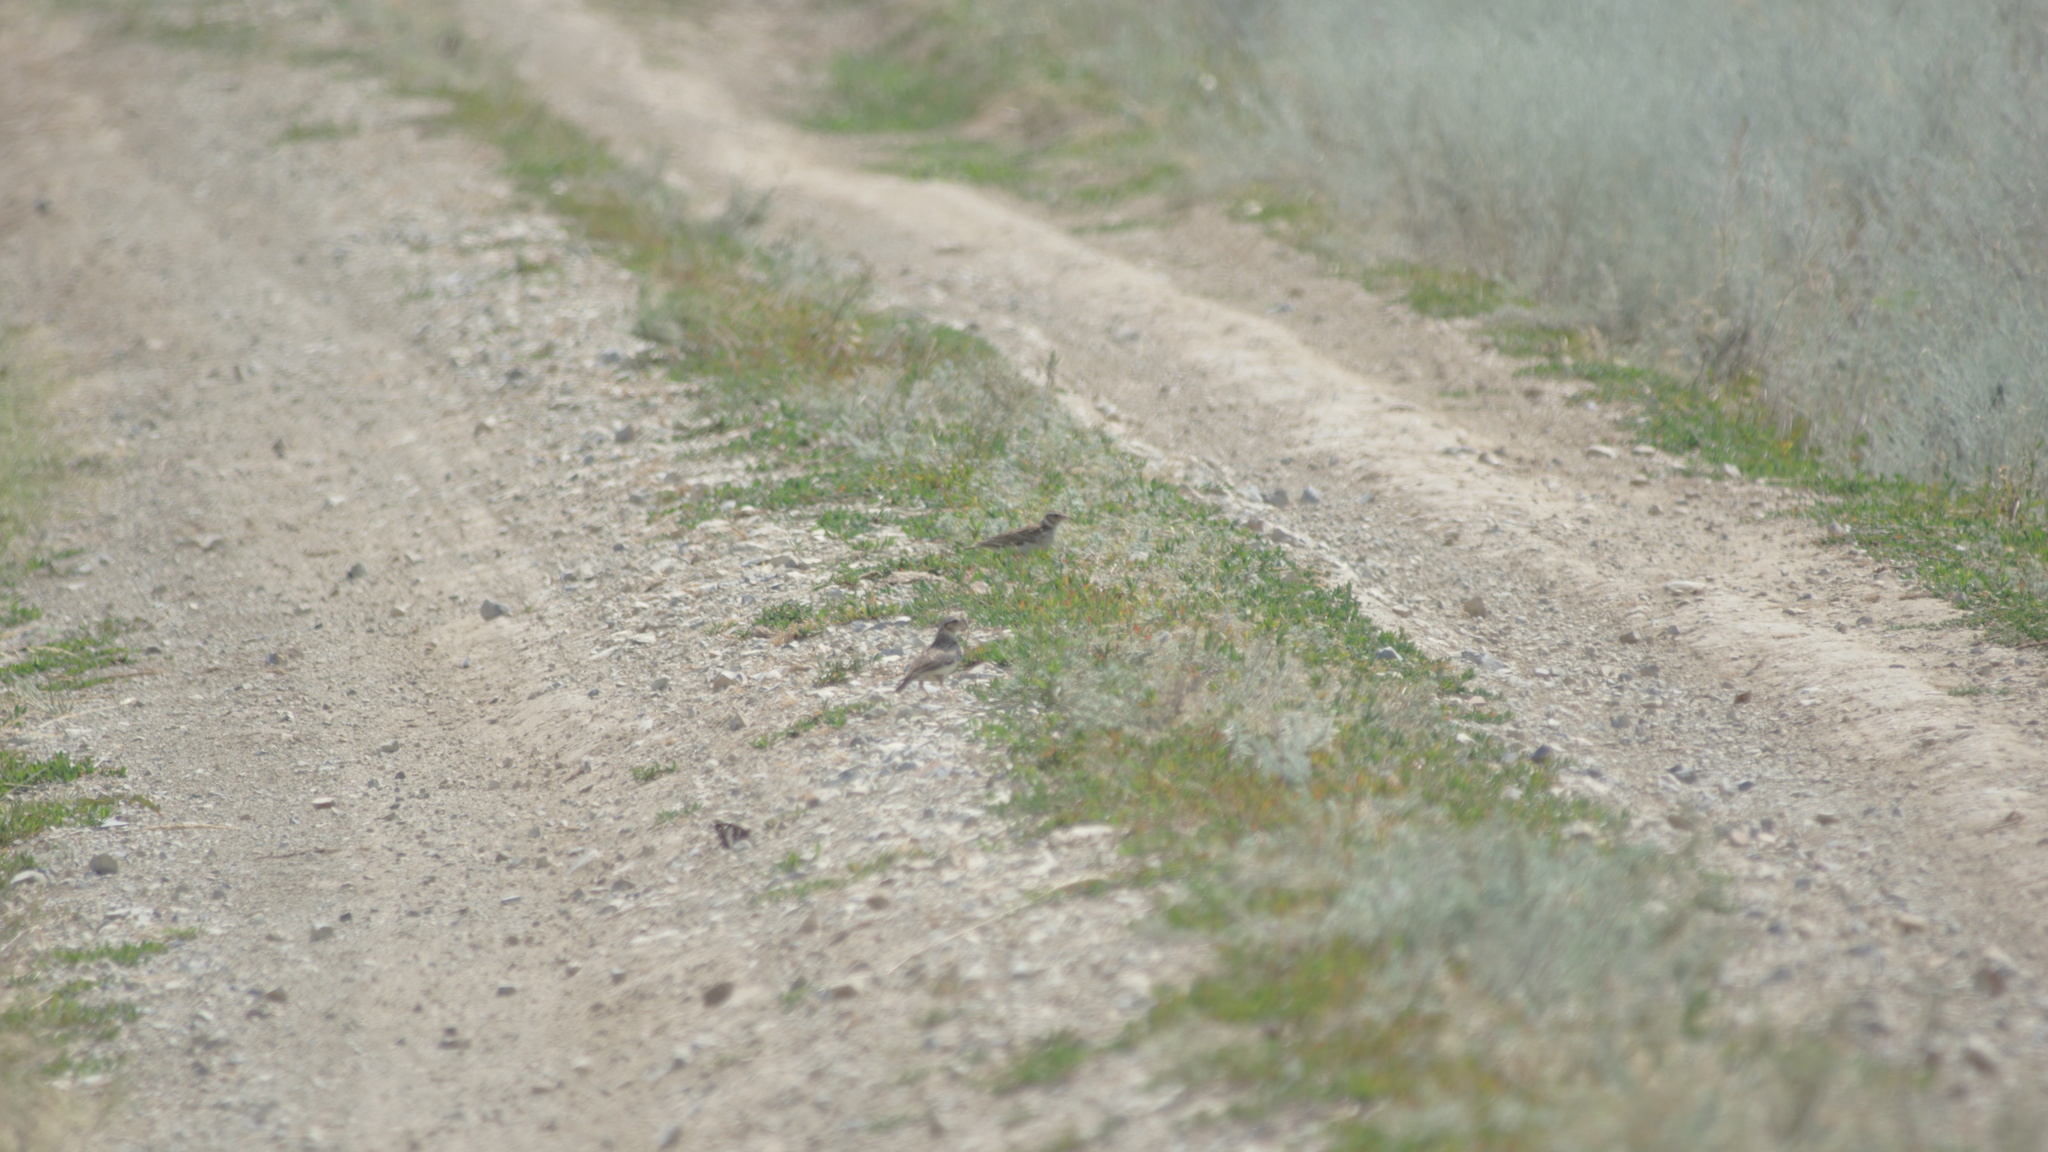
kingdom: Animalia
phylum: Chordata
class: Aves
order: Passeriformes
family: Alaudidae
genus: Lullula
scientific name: Lullula arborea
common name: Woodlark
